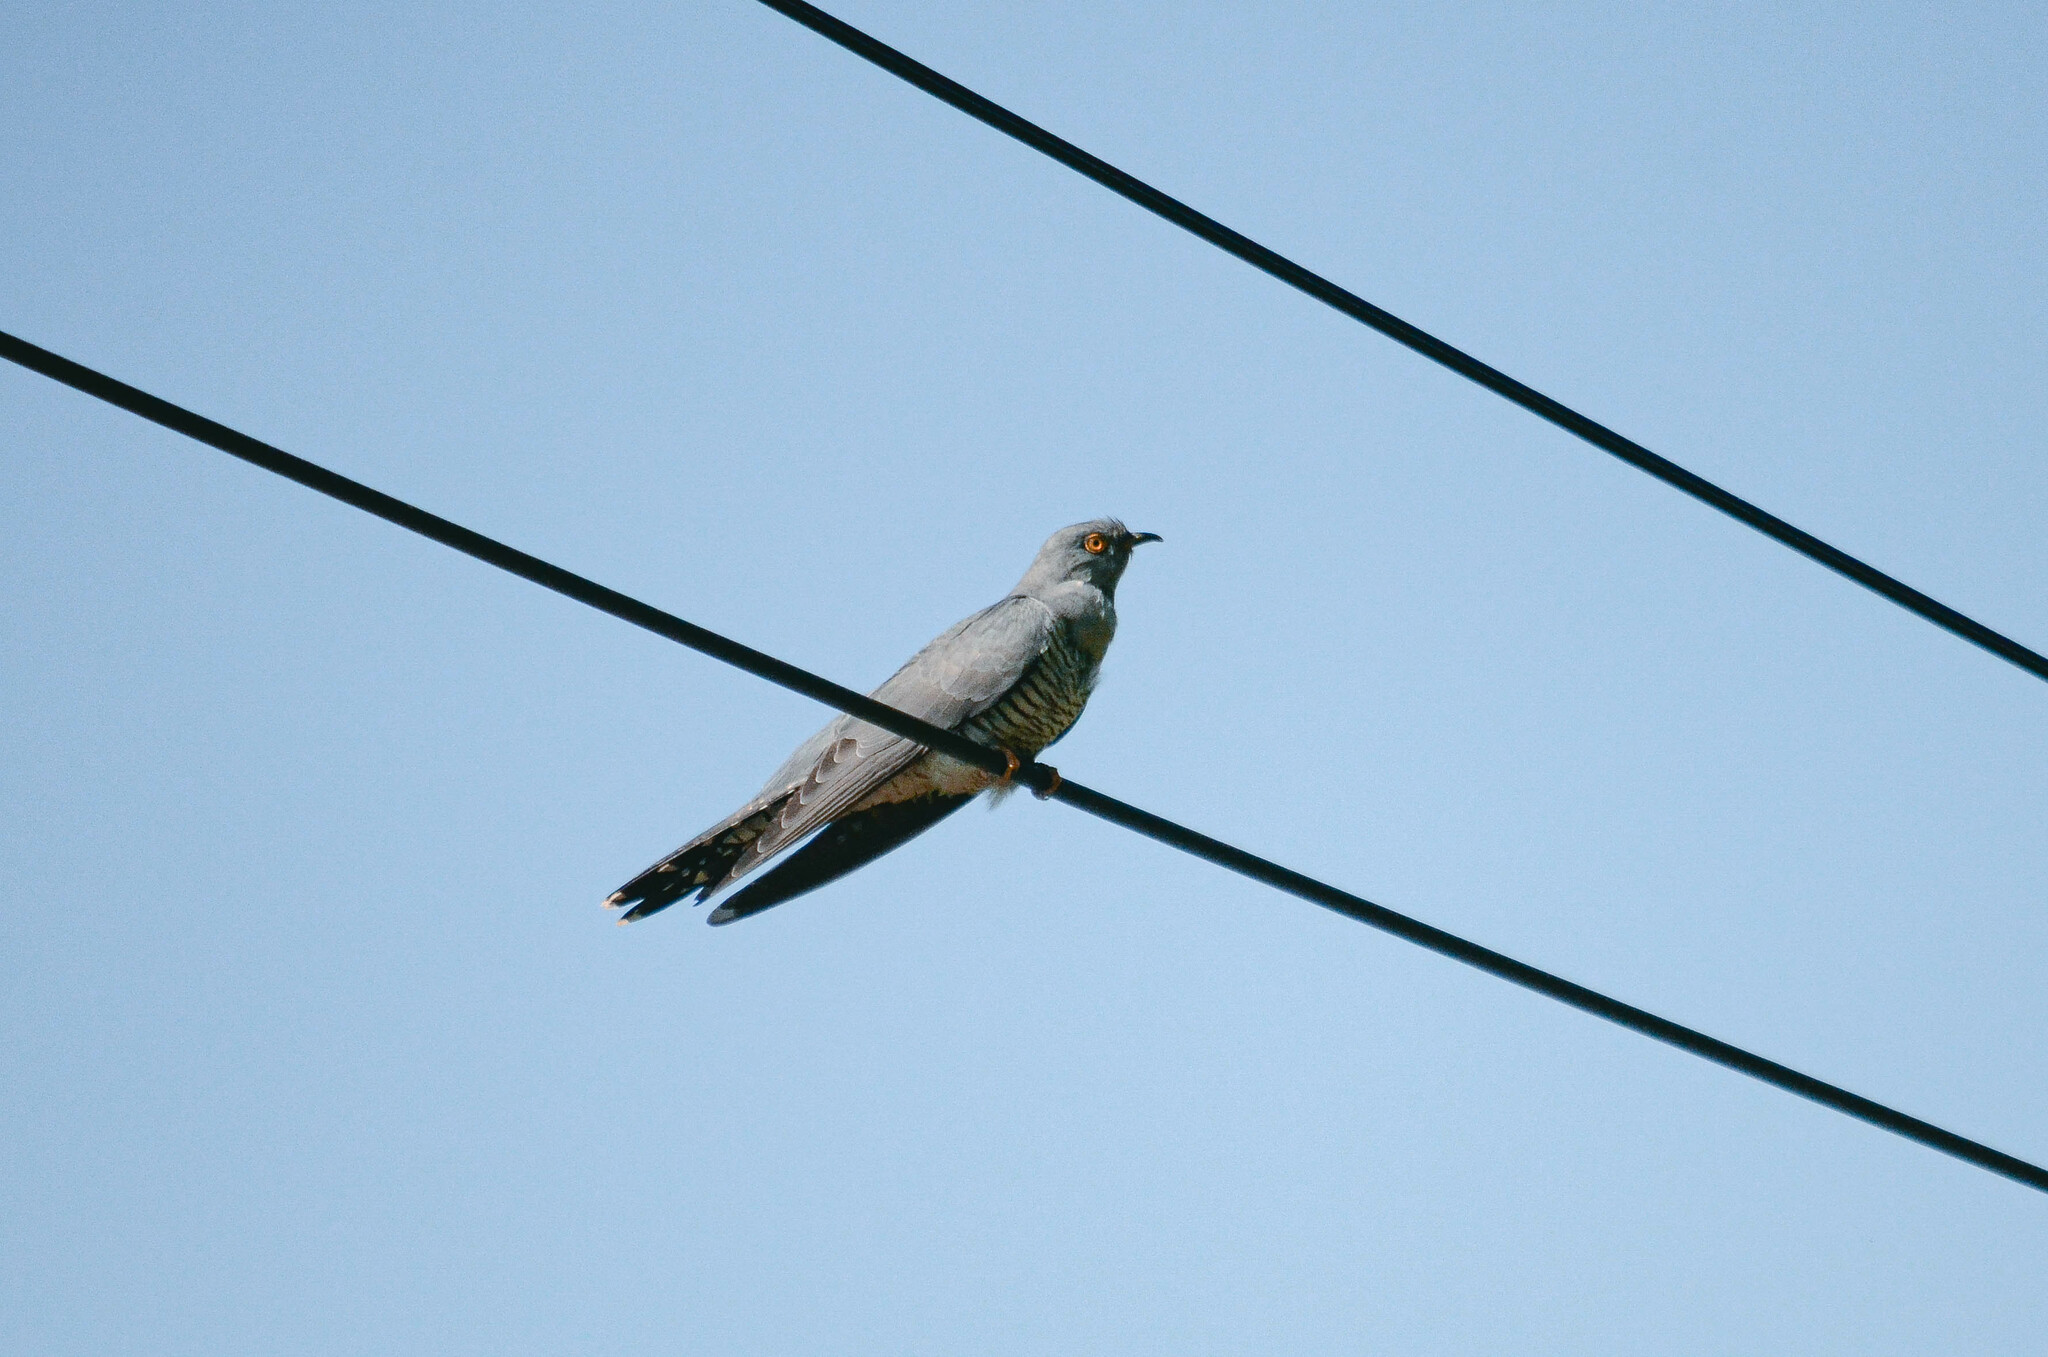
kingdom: Animalia
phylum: Chordata
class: Aves
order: Cuculiformes
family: Cuculidae
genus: Cuculus
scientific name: Cuculus canorus
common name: Common cuckoo
